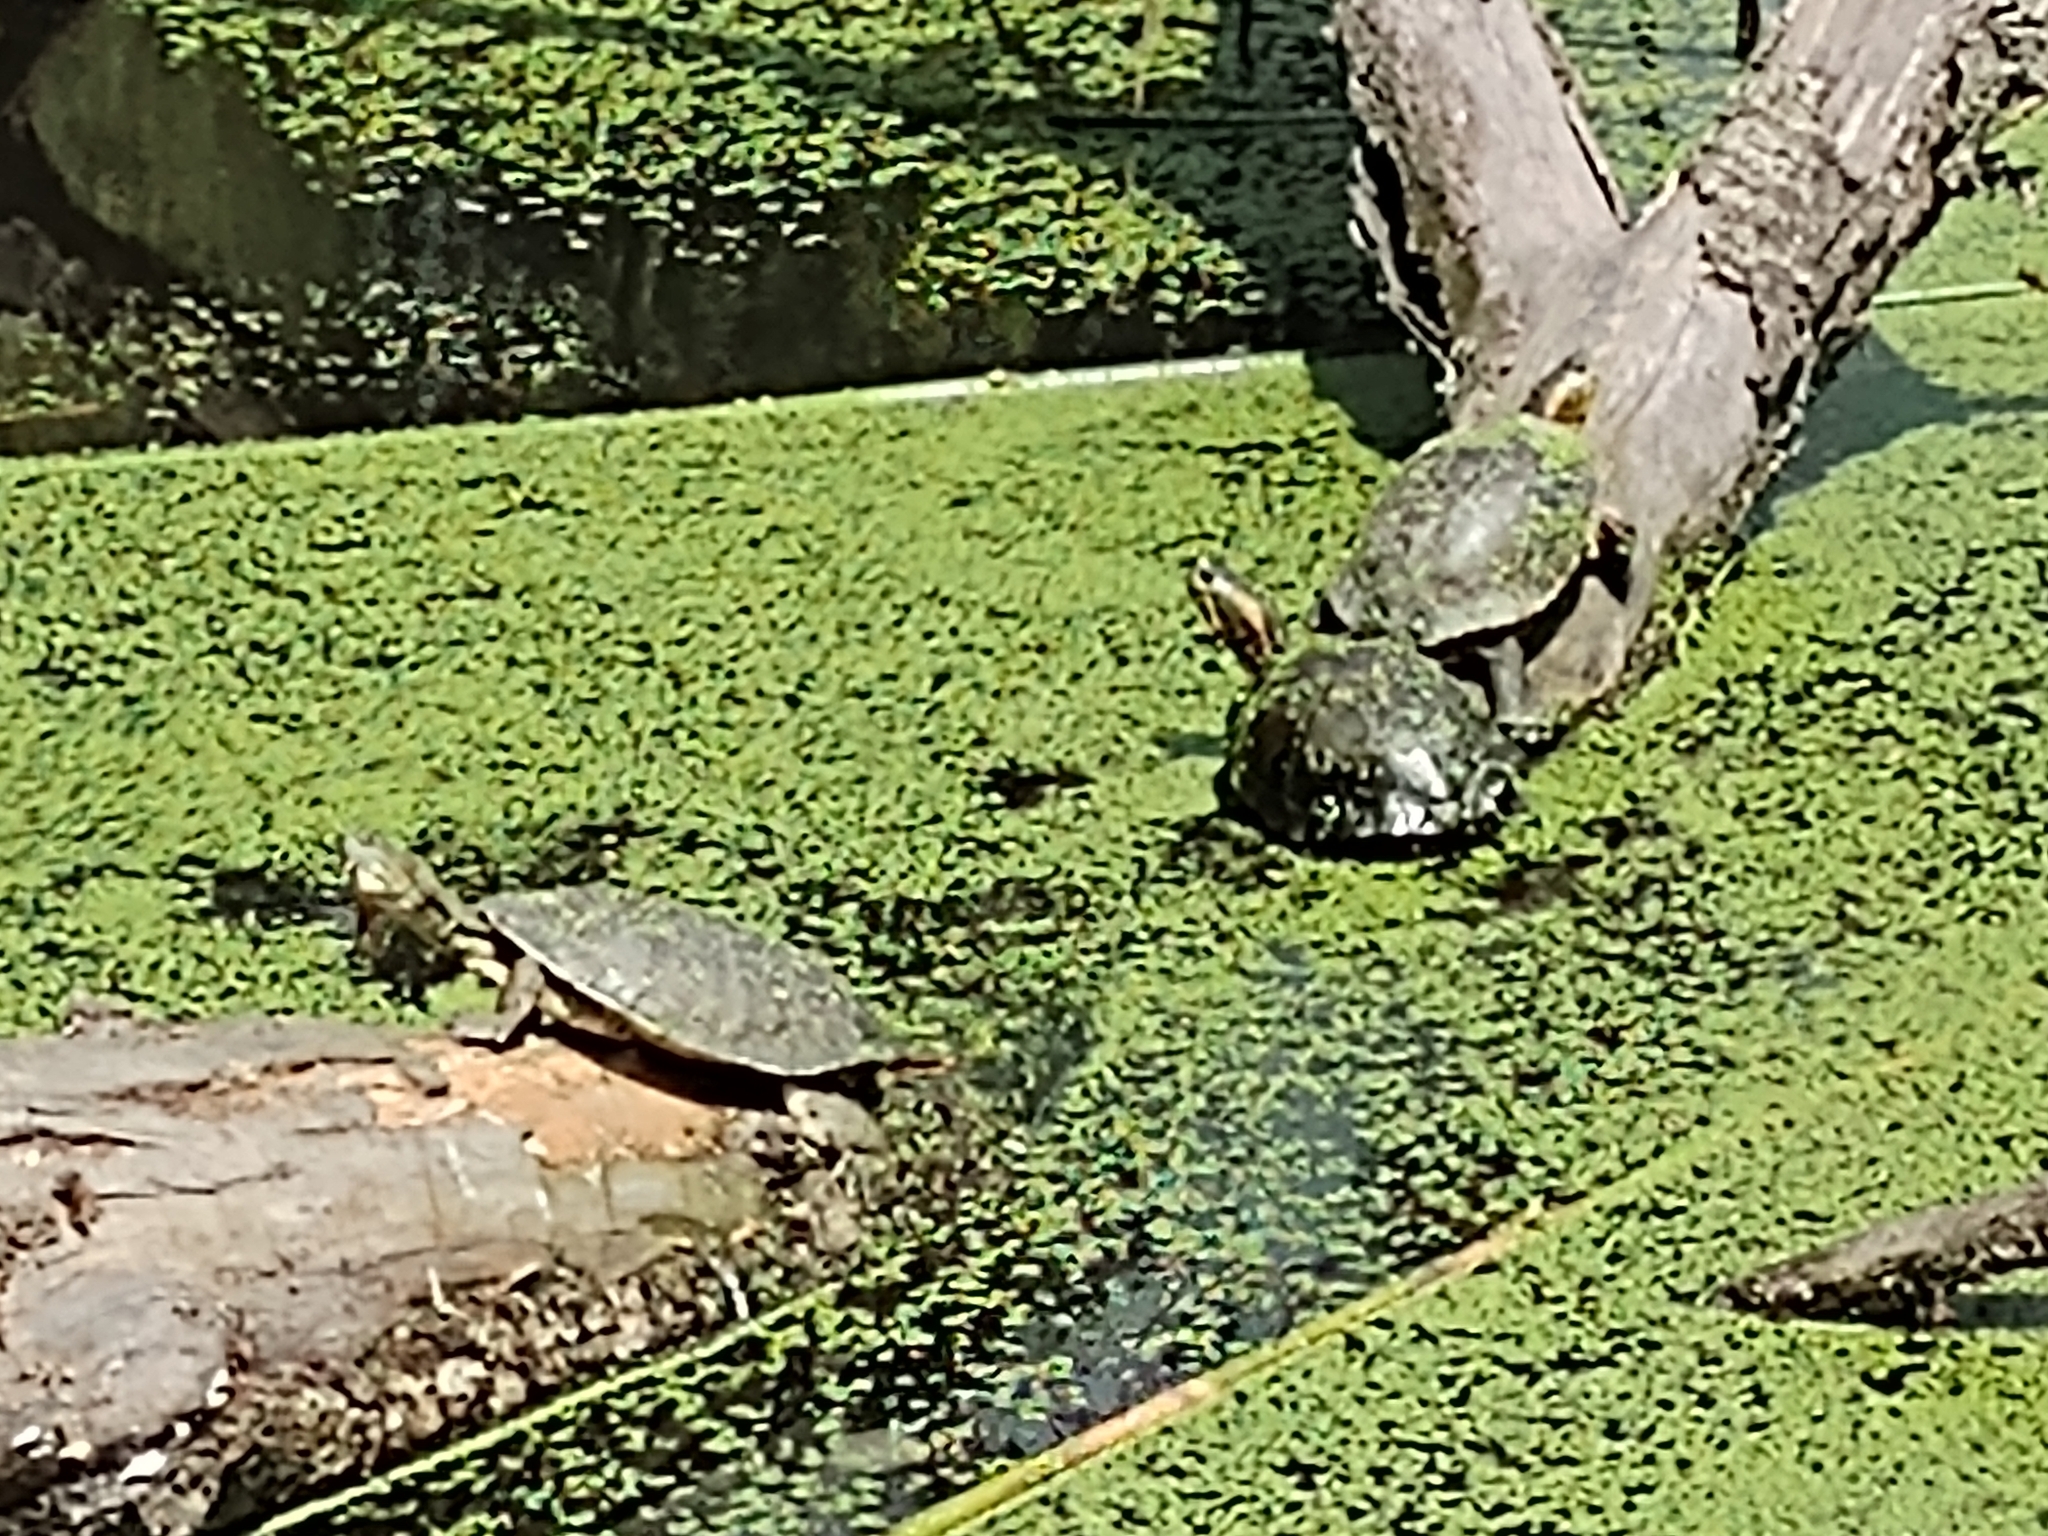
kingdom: Animalia
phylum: Chordata
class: Testudines
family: Chelidae
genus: Phrynops
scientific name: Phrynops hilarii
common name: Side-necked turtle of saint hillaire
